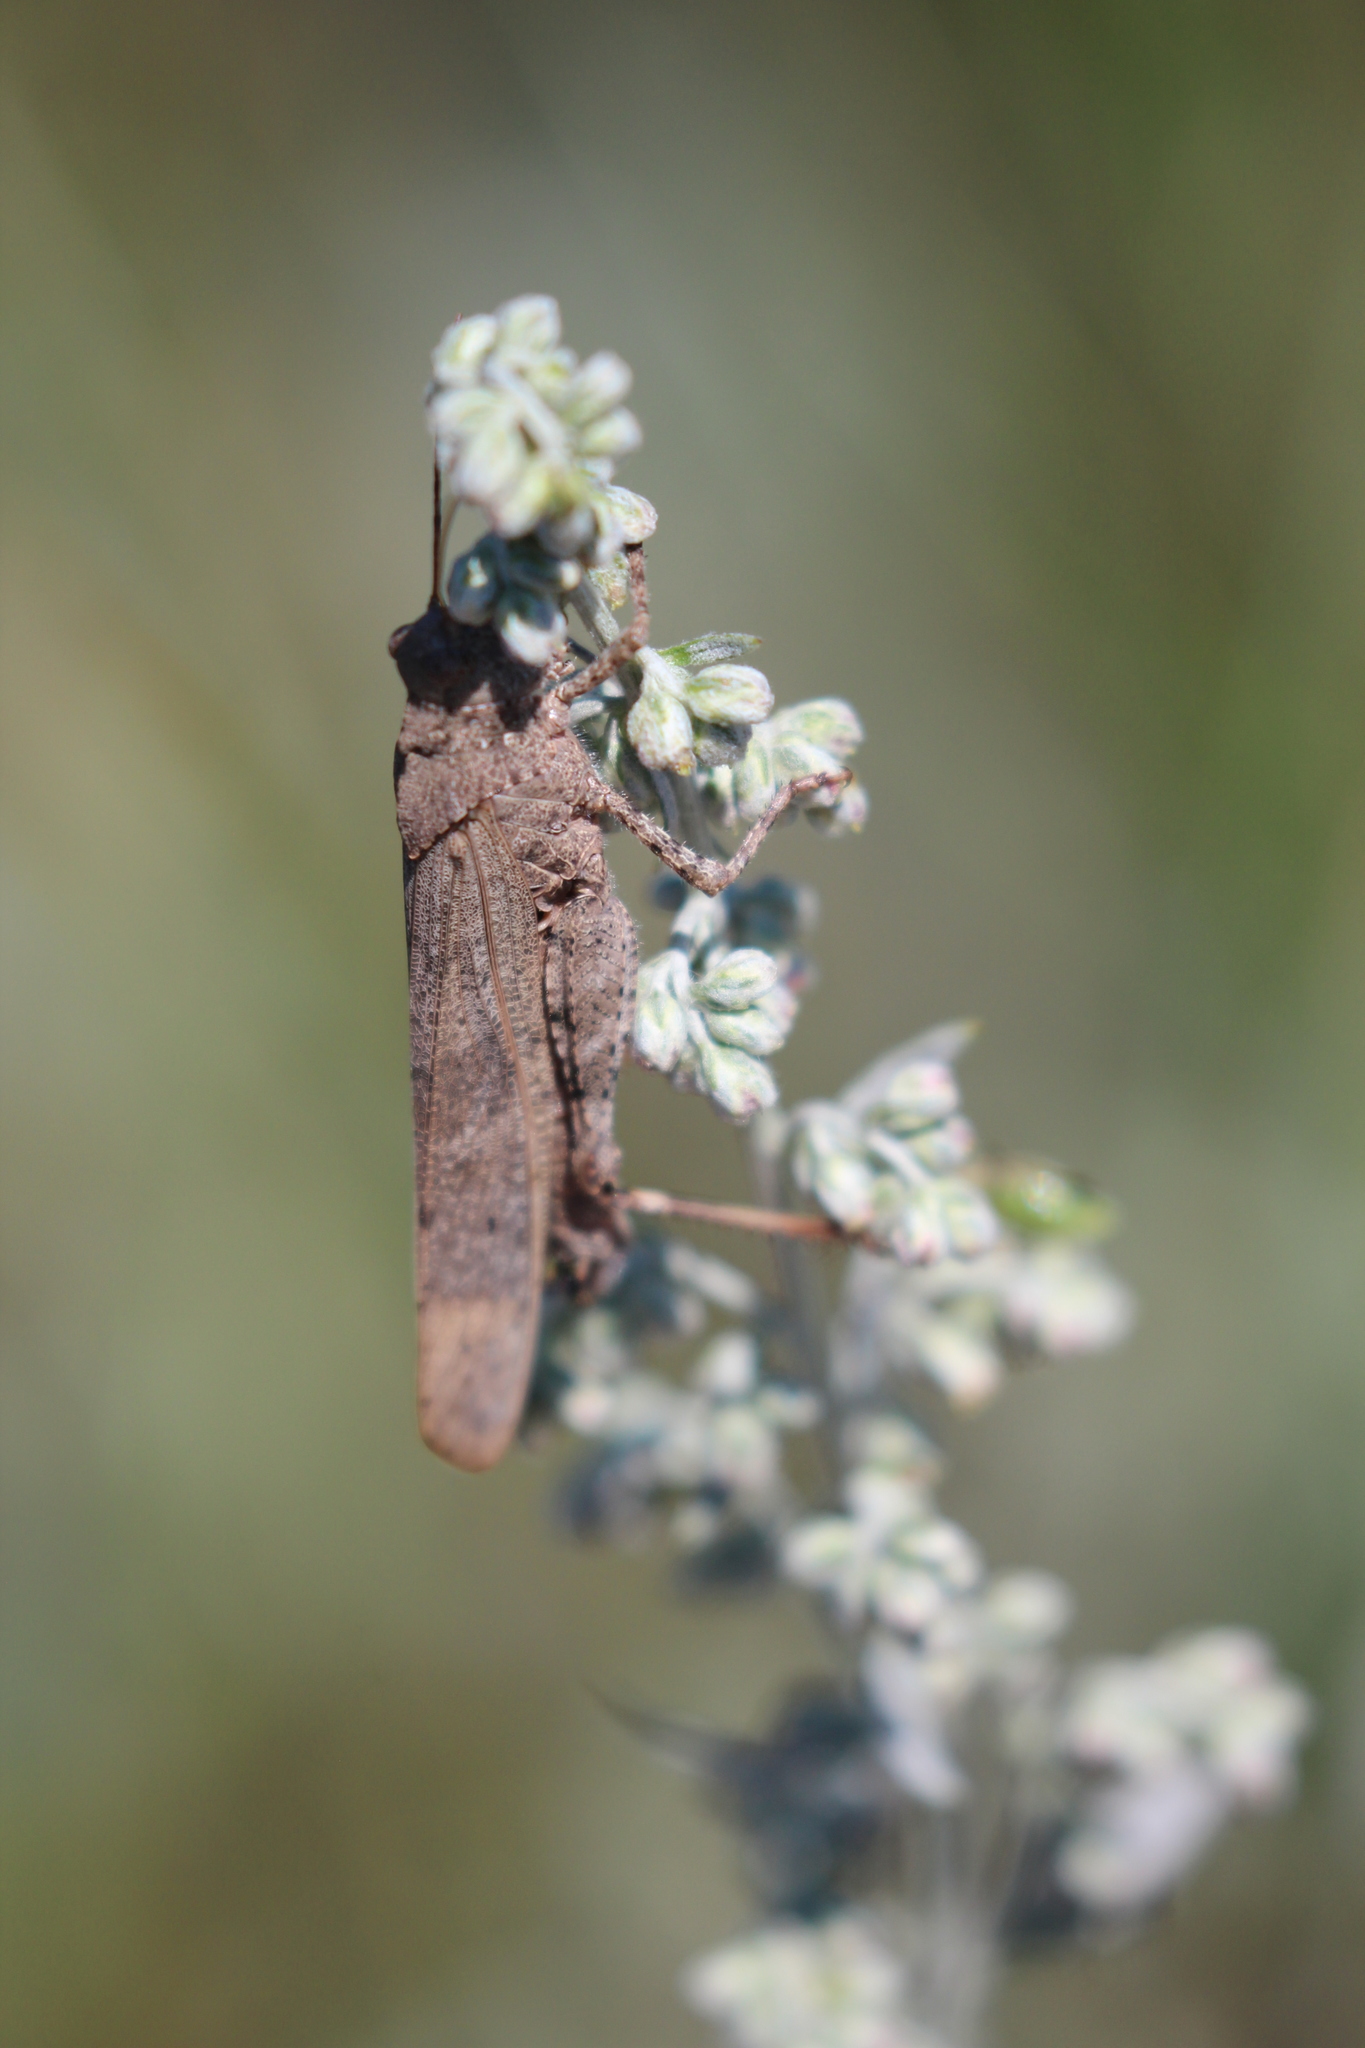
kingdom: Animalia
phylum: Arthropoda
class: Insecta
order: Orthoptera
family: Acrididae
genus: Dissosteira
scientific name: Dissosteira carolina
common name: Carolina grasshopper
